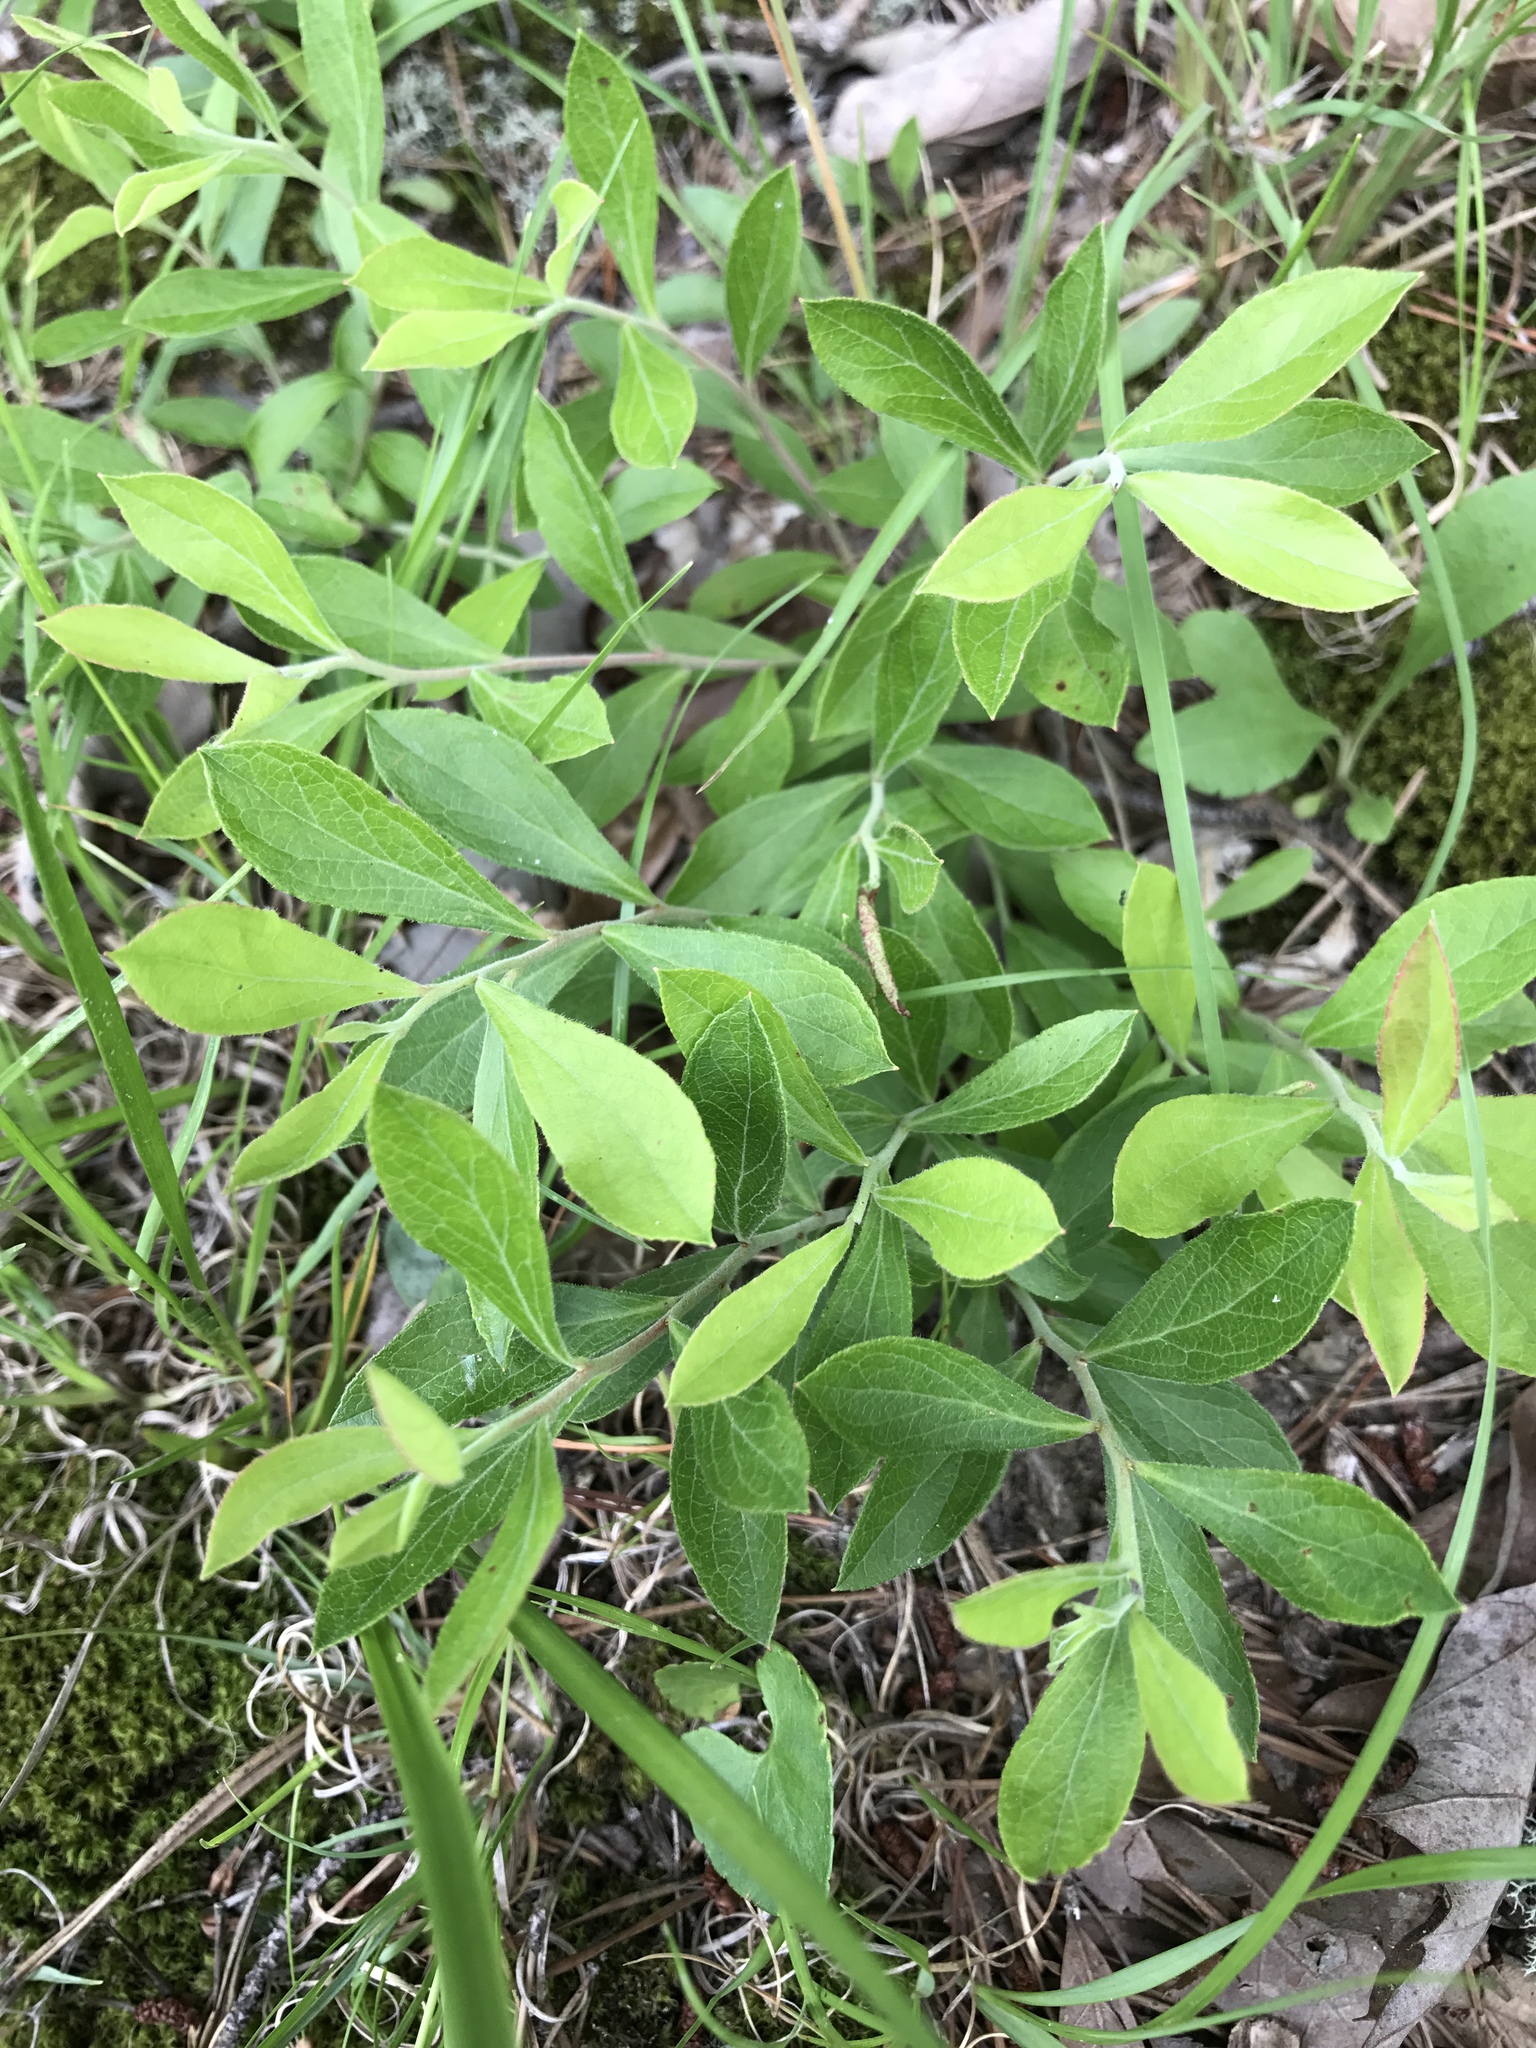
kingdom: Plantae
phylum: Tracheophyta
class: Magnoliopsida
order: Ericales
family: Ericaceae
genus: Vaccinium
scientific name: Vaccinium tenellum
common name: Southern blueberry
